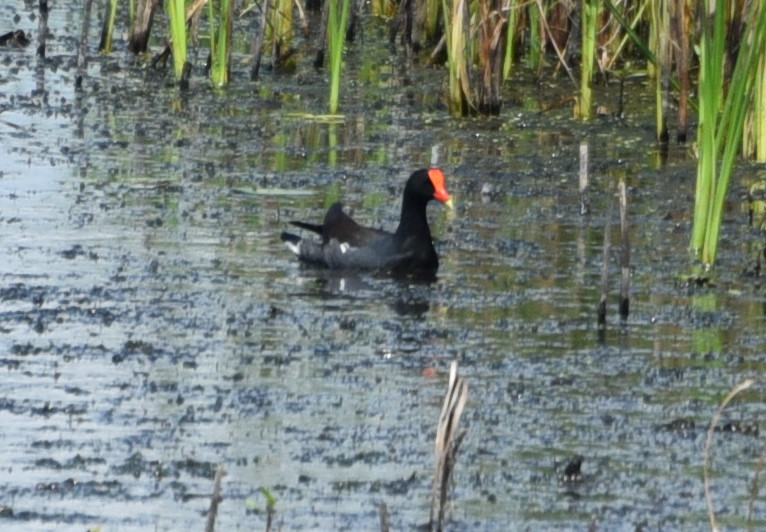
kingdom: Animalia
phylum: Chordata
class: Aves
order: Gruiformes
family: Rallidae
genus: Gallinula
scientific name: Gallinula chloropus
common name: Common moorhen
